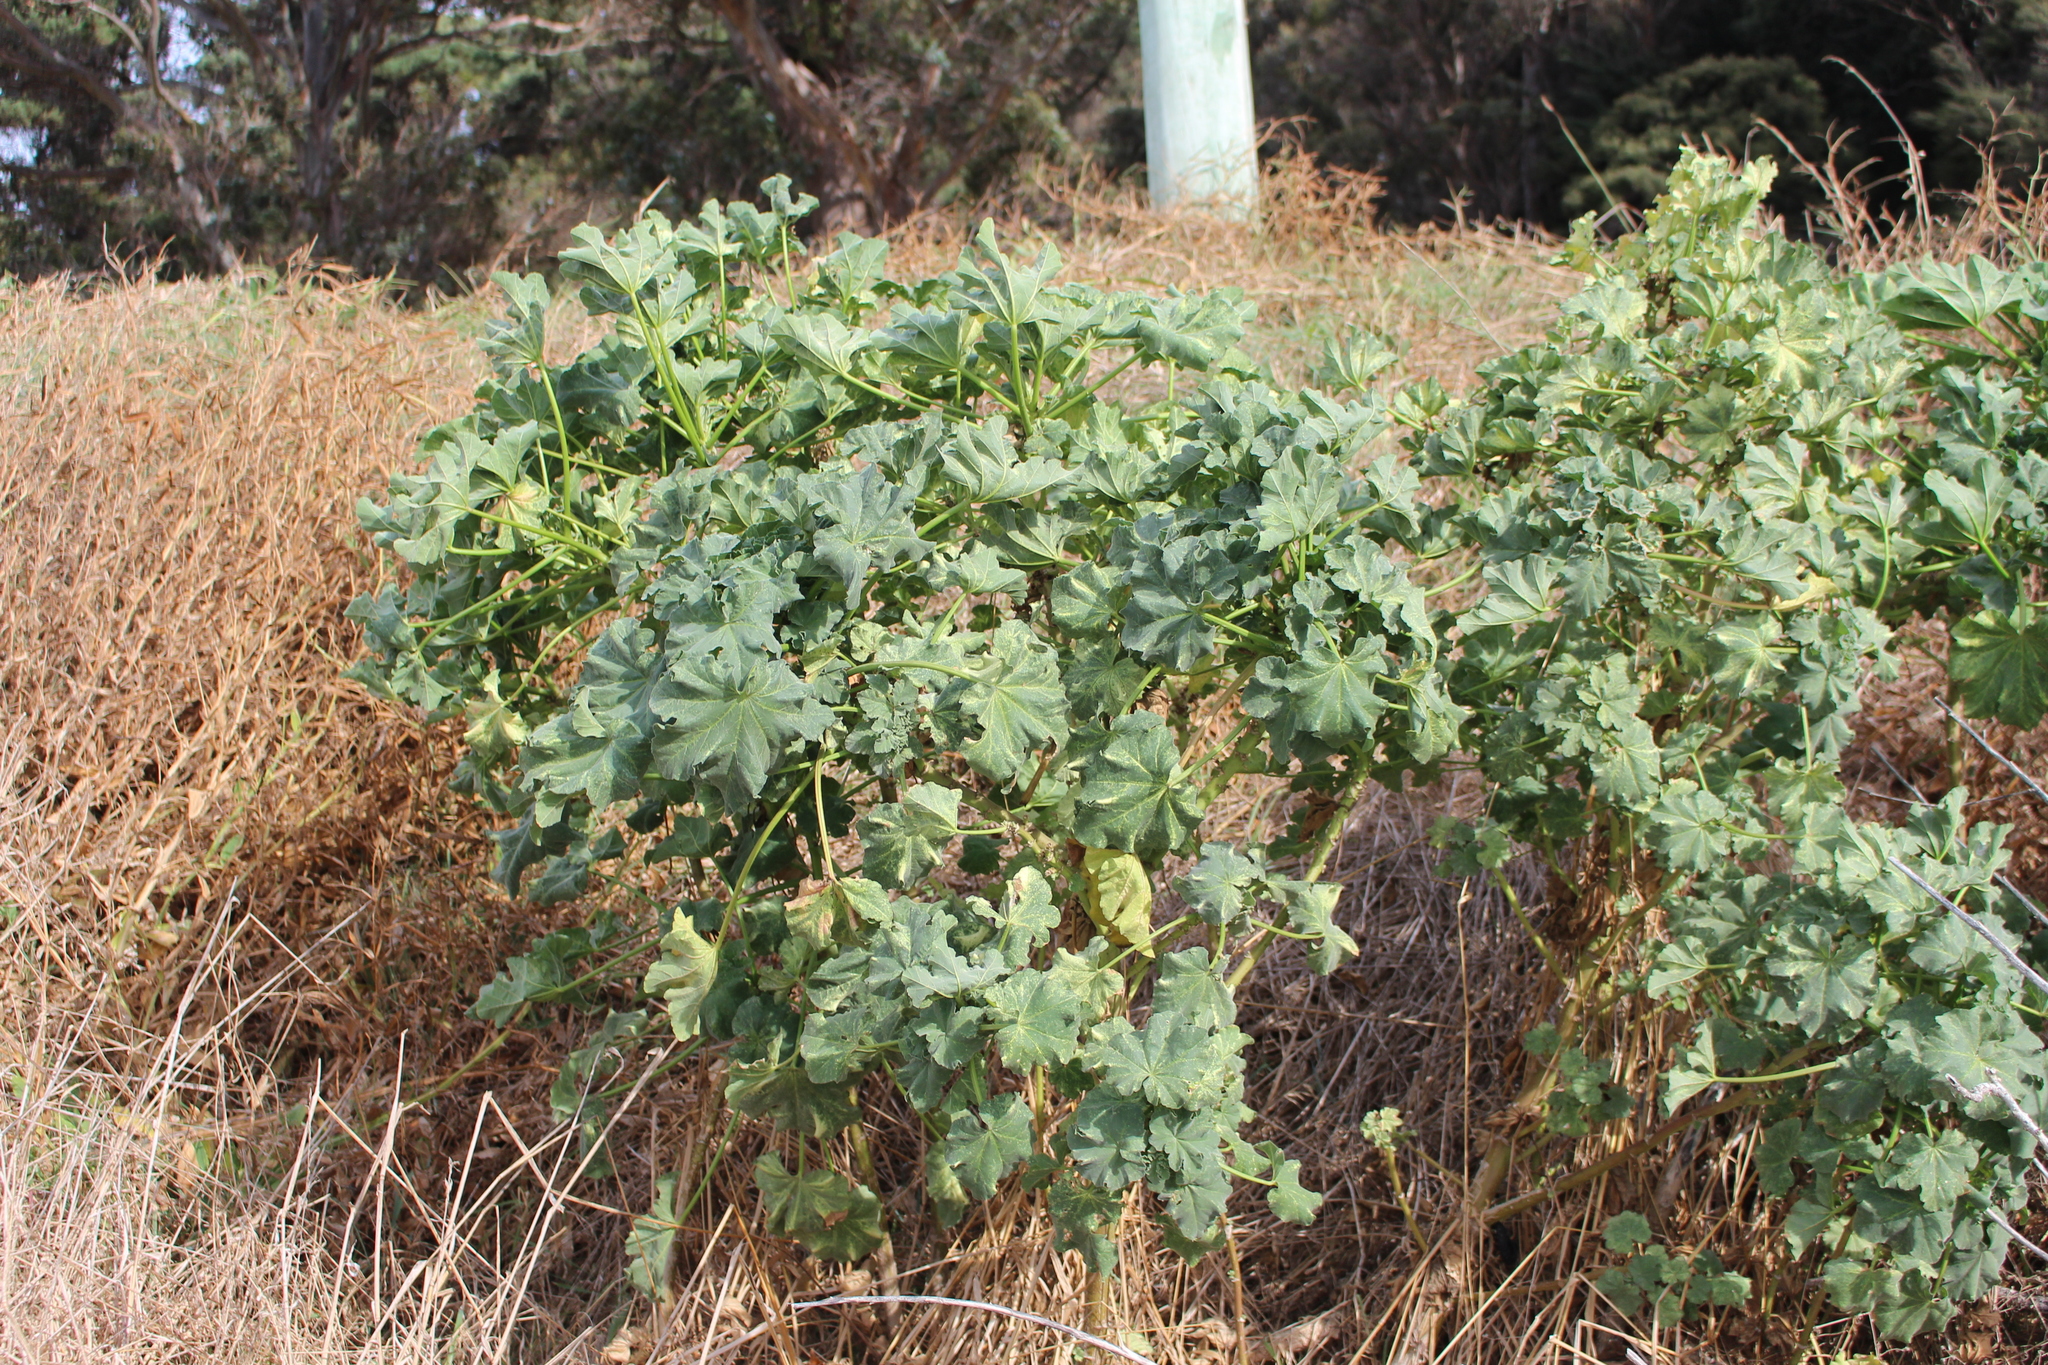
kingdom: Plantae
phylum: Tracheophyta
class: Magnoliopsida
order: Malvales
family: Malvaceae
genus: Malva
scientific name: Malva arborea
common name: Tree mallow
